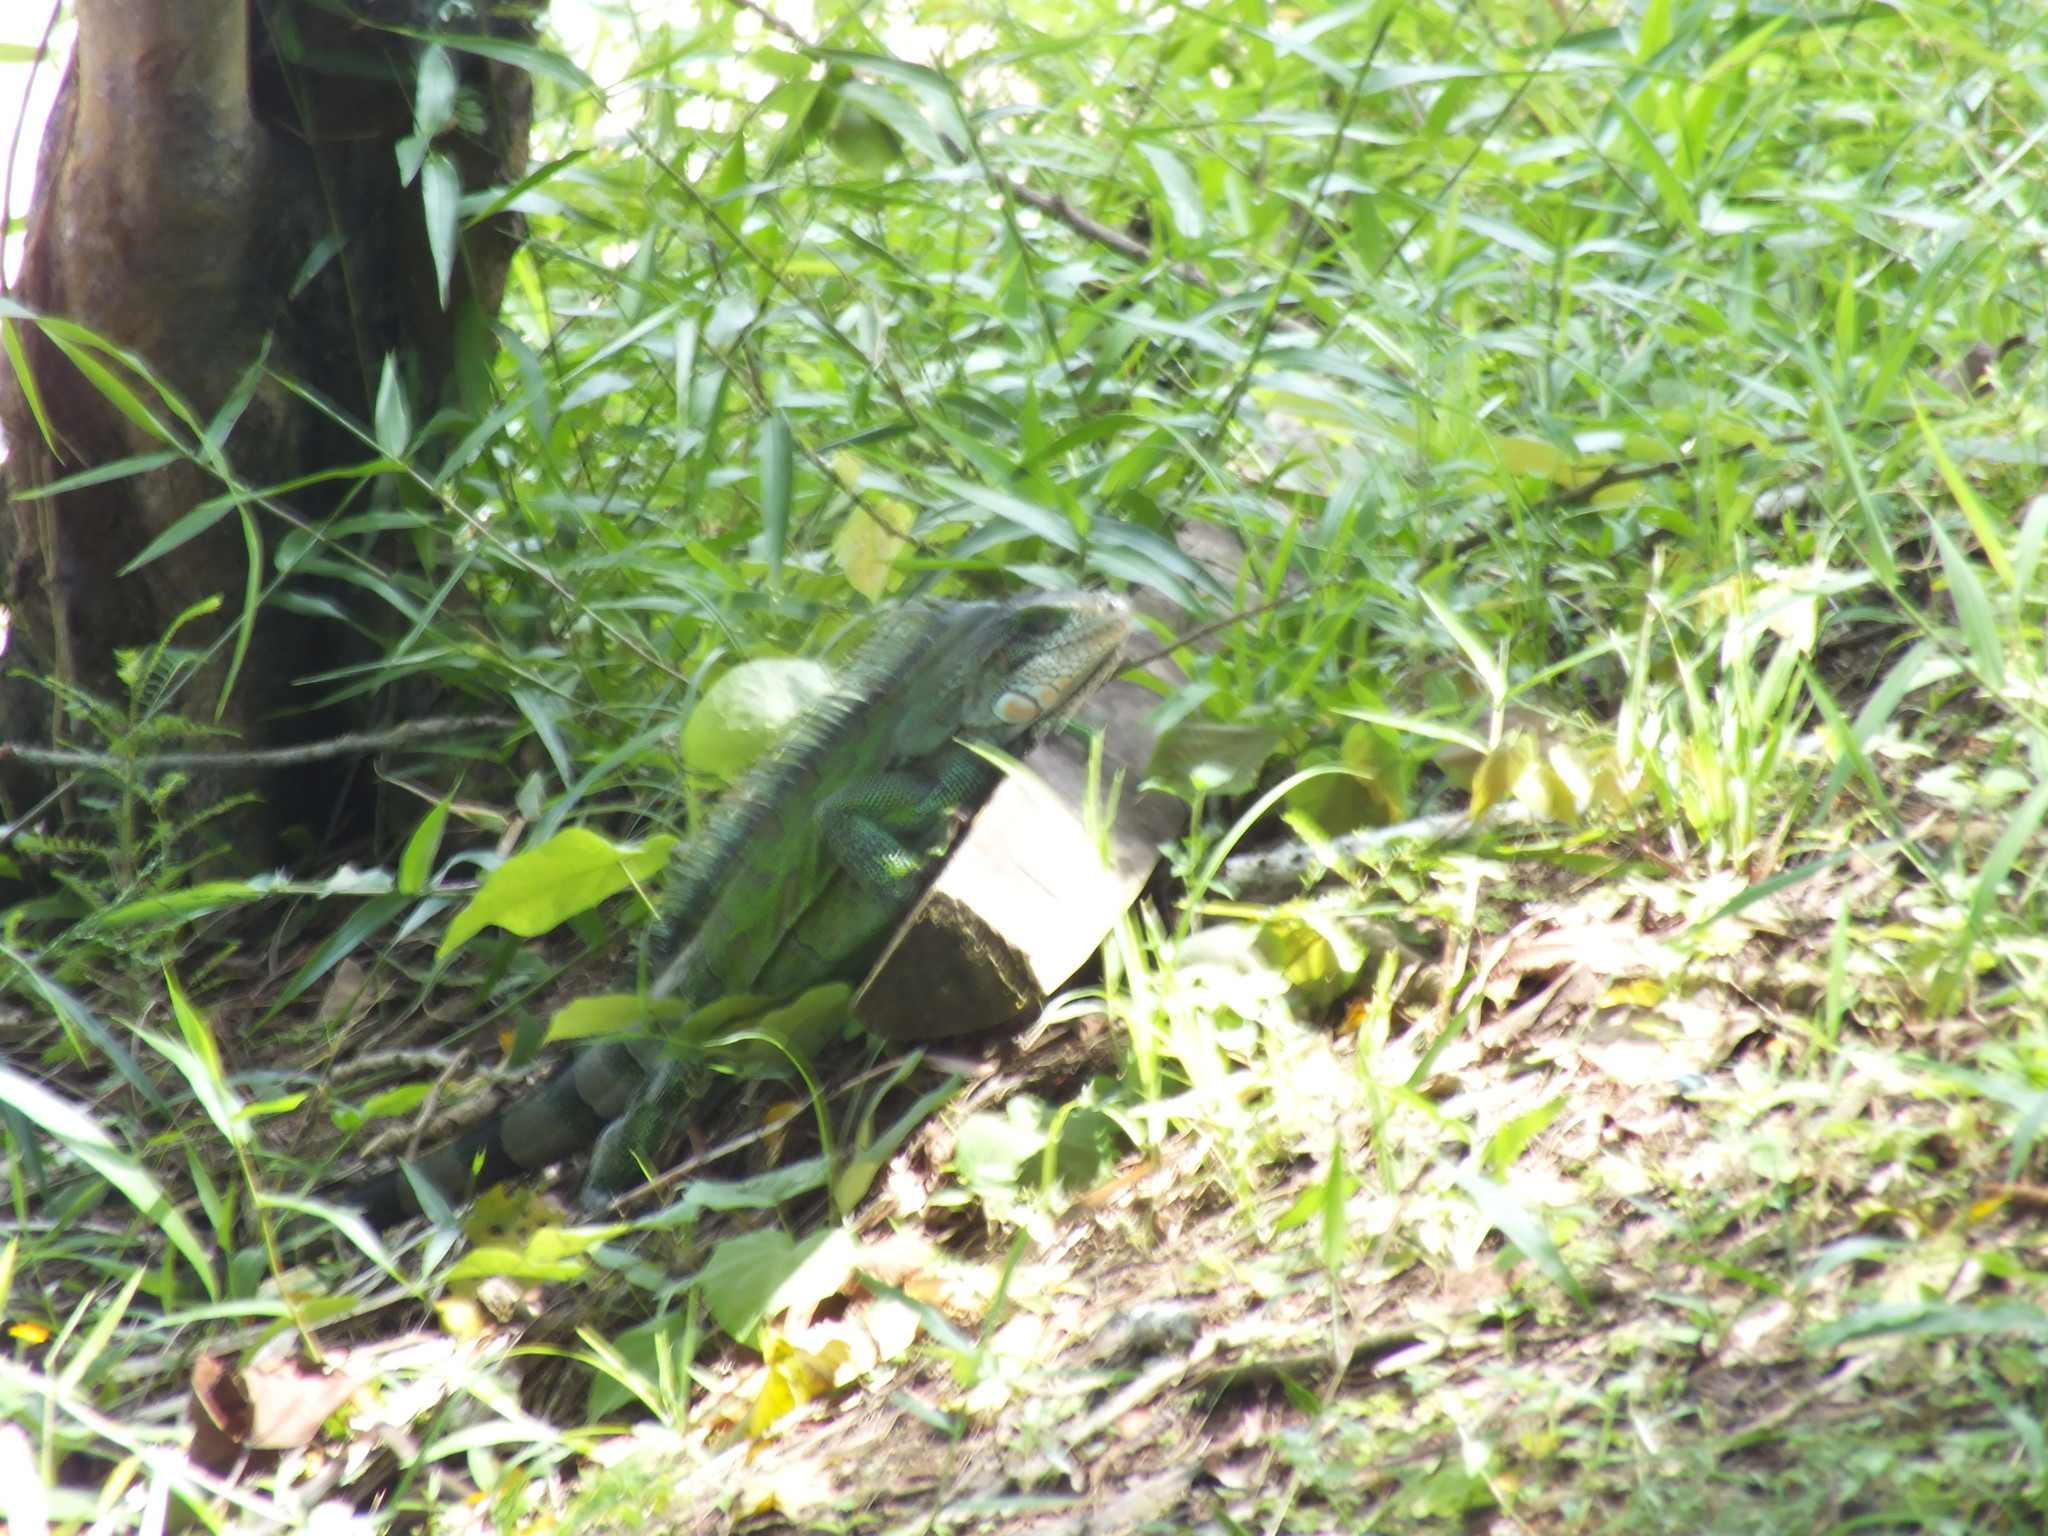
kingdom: Animalia
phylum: Chordata
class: Squamata
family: Iguanidae
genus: Iguana
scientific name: Iguana iguana
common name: Green iguana
